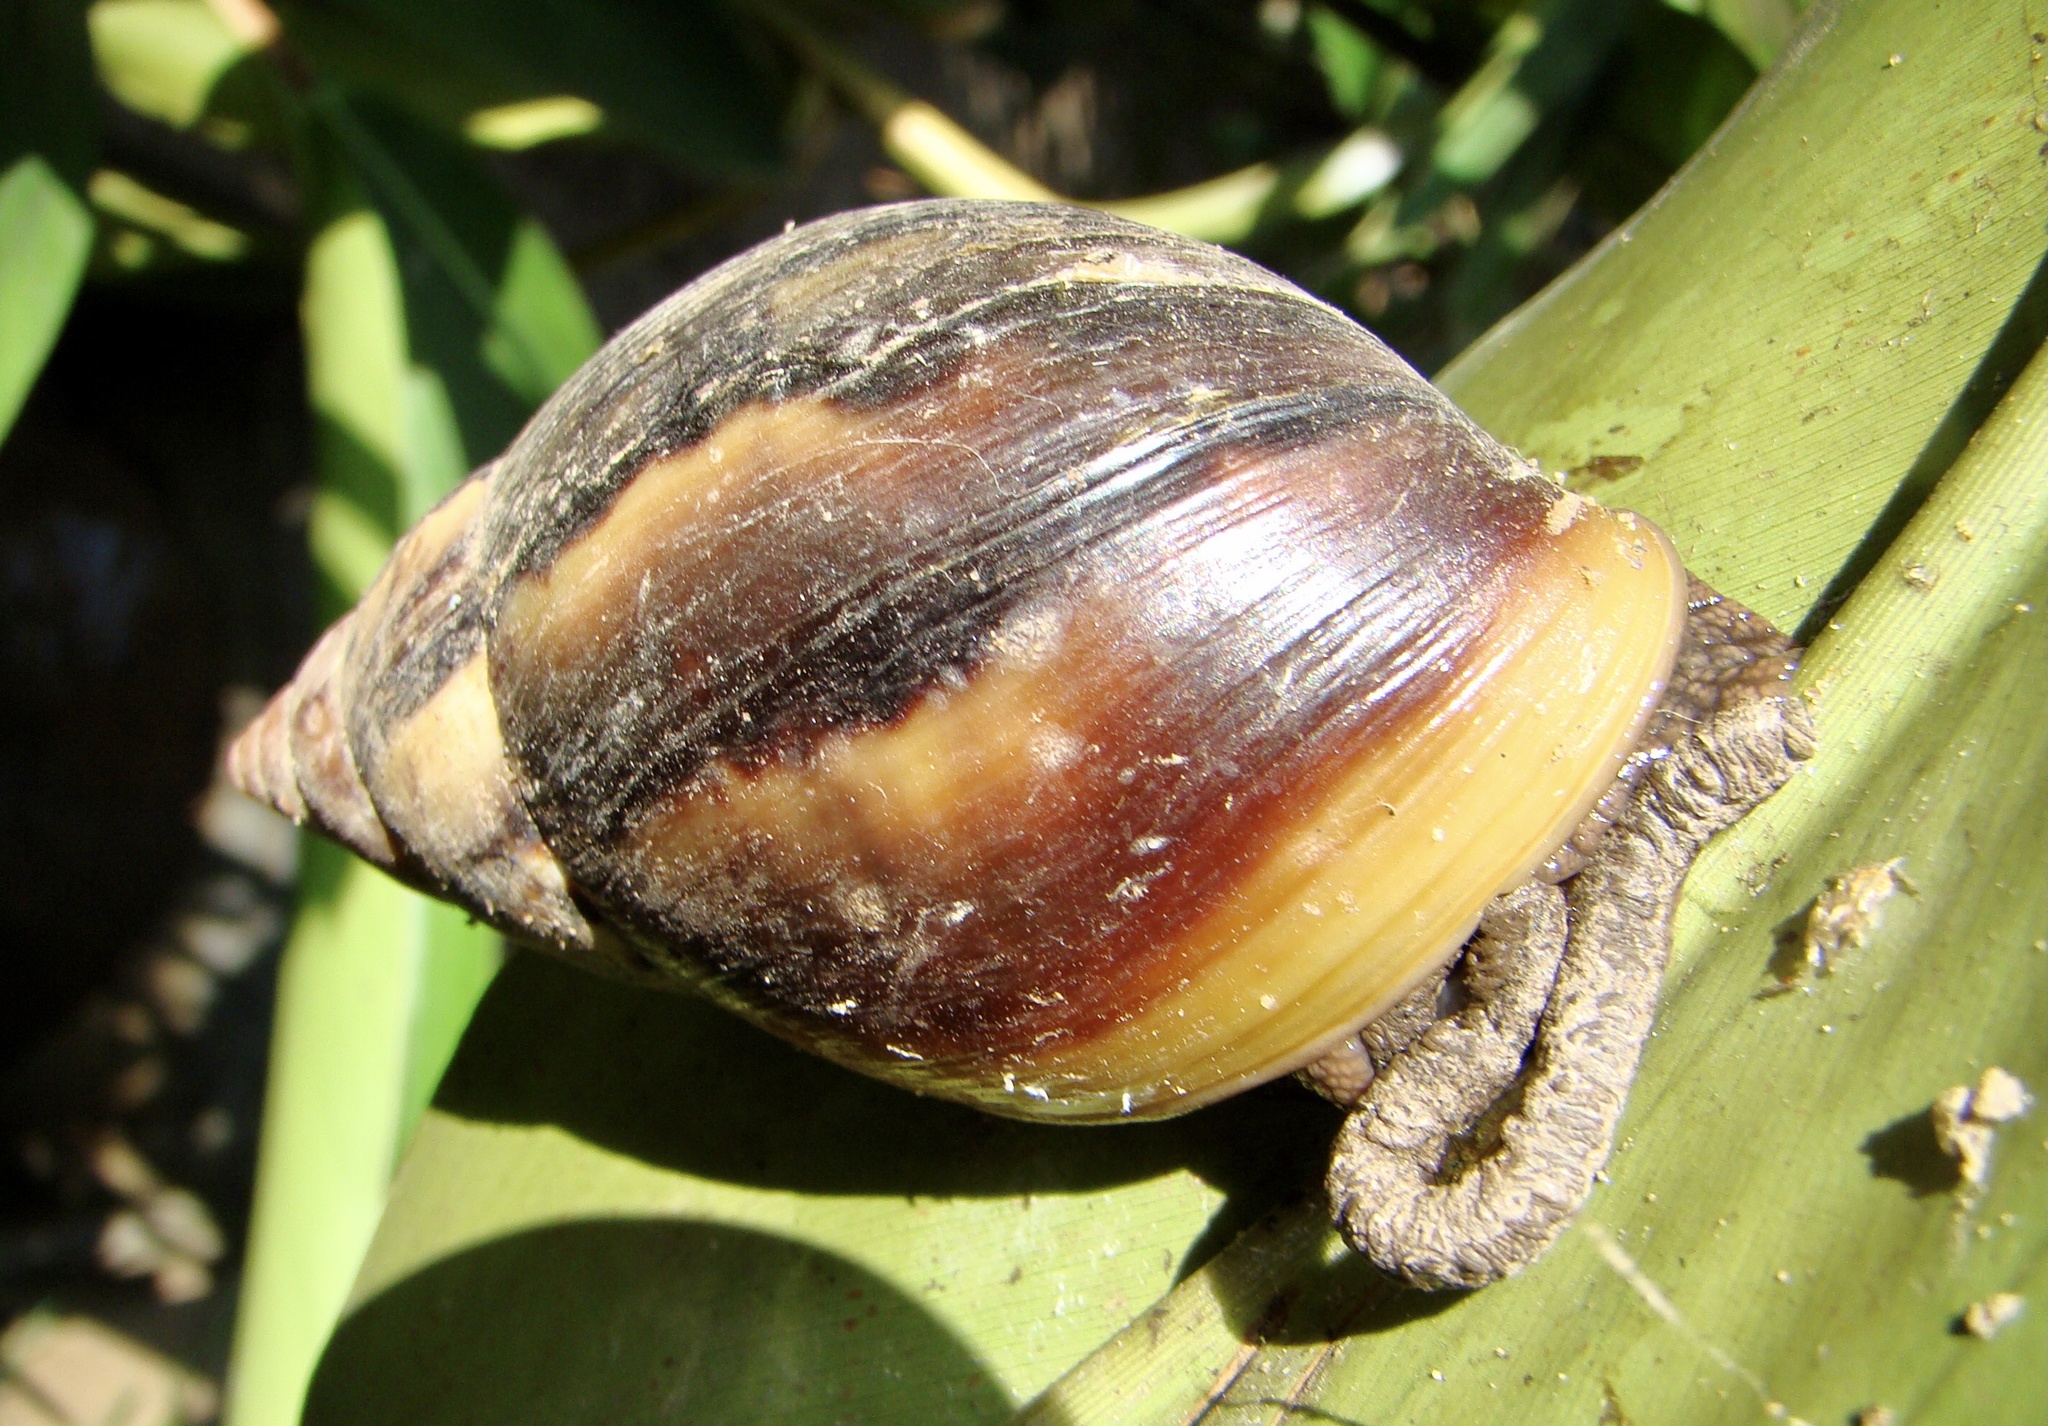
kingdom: Animalia
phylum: Mollusca
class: Gastropoda
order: Stylommatophora
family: Achatinidae
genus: Lissachatina
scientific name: Lissachatina fulica
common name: Giant african snail
